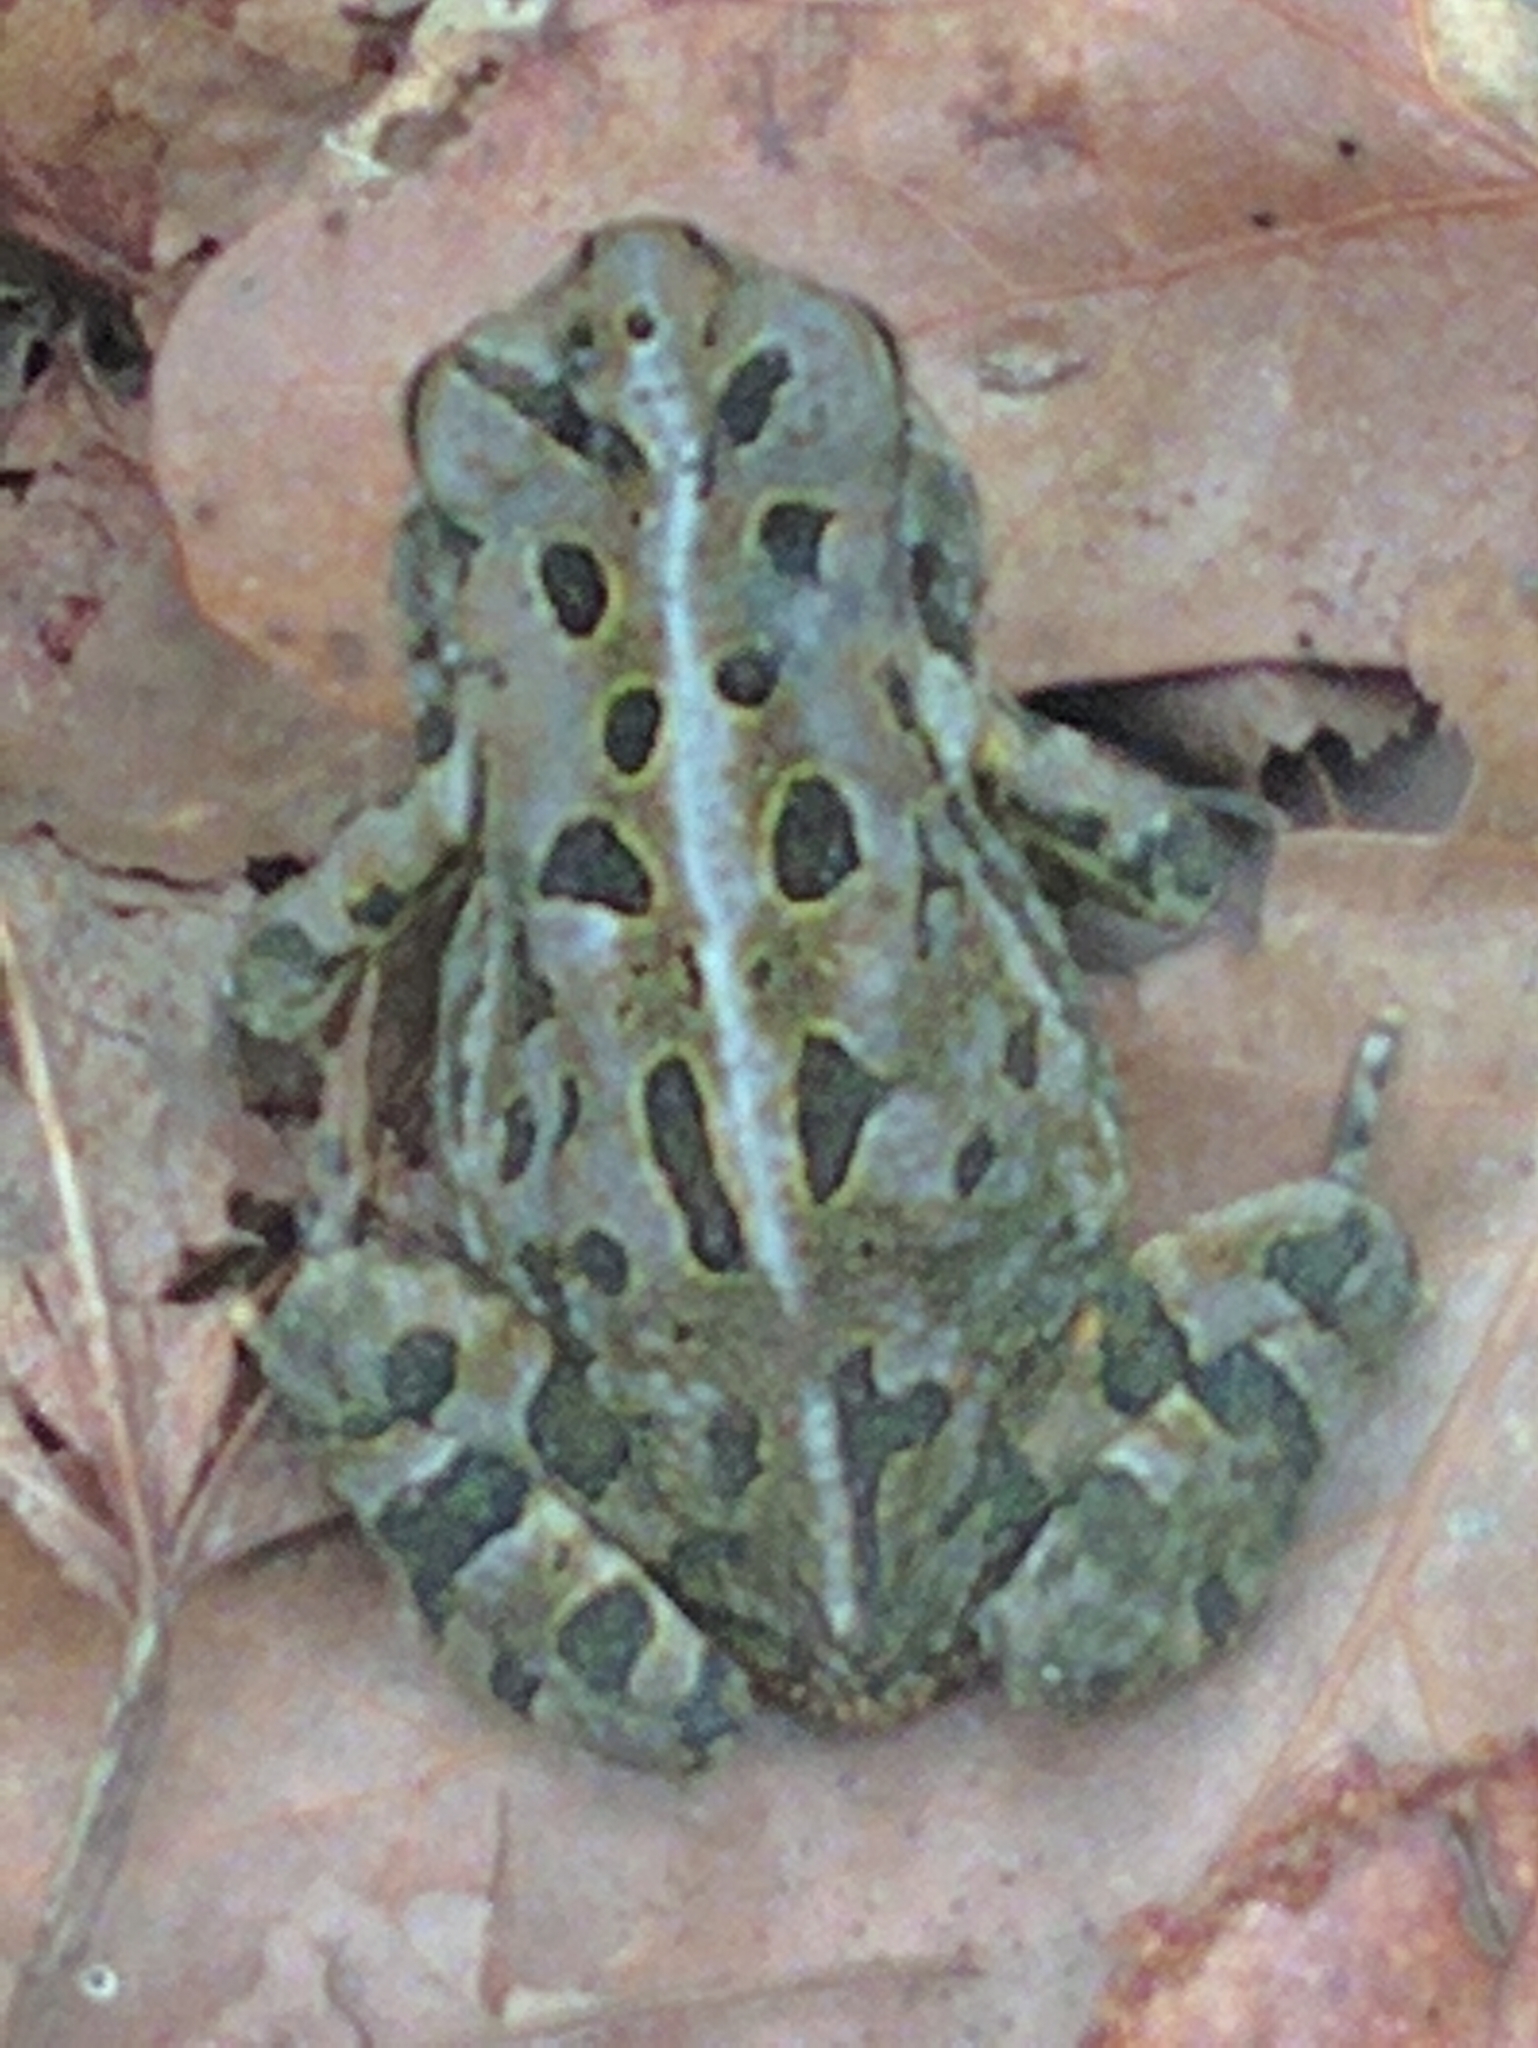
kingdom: Animalia
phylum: Chordata
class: Amphibia
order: Anura
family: Bufonidae
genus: Anaxyrus
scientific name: Anaxyrus fowleri
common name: Fowler's toad
